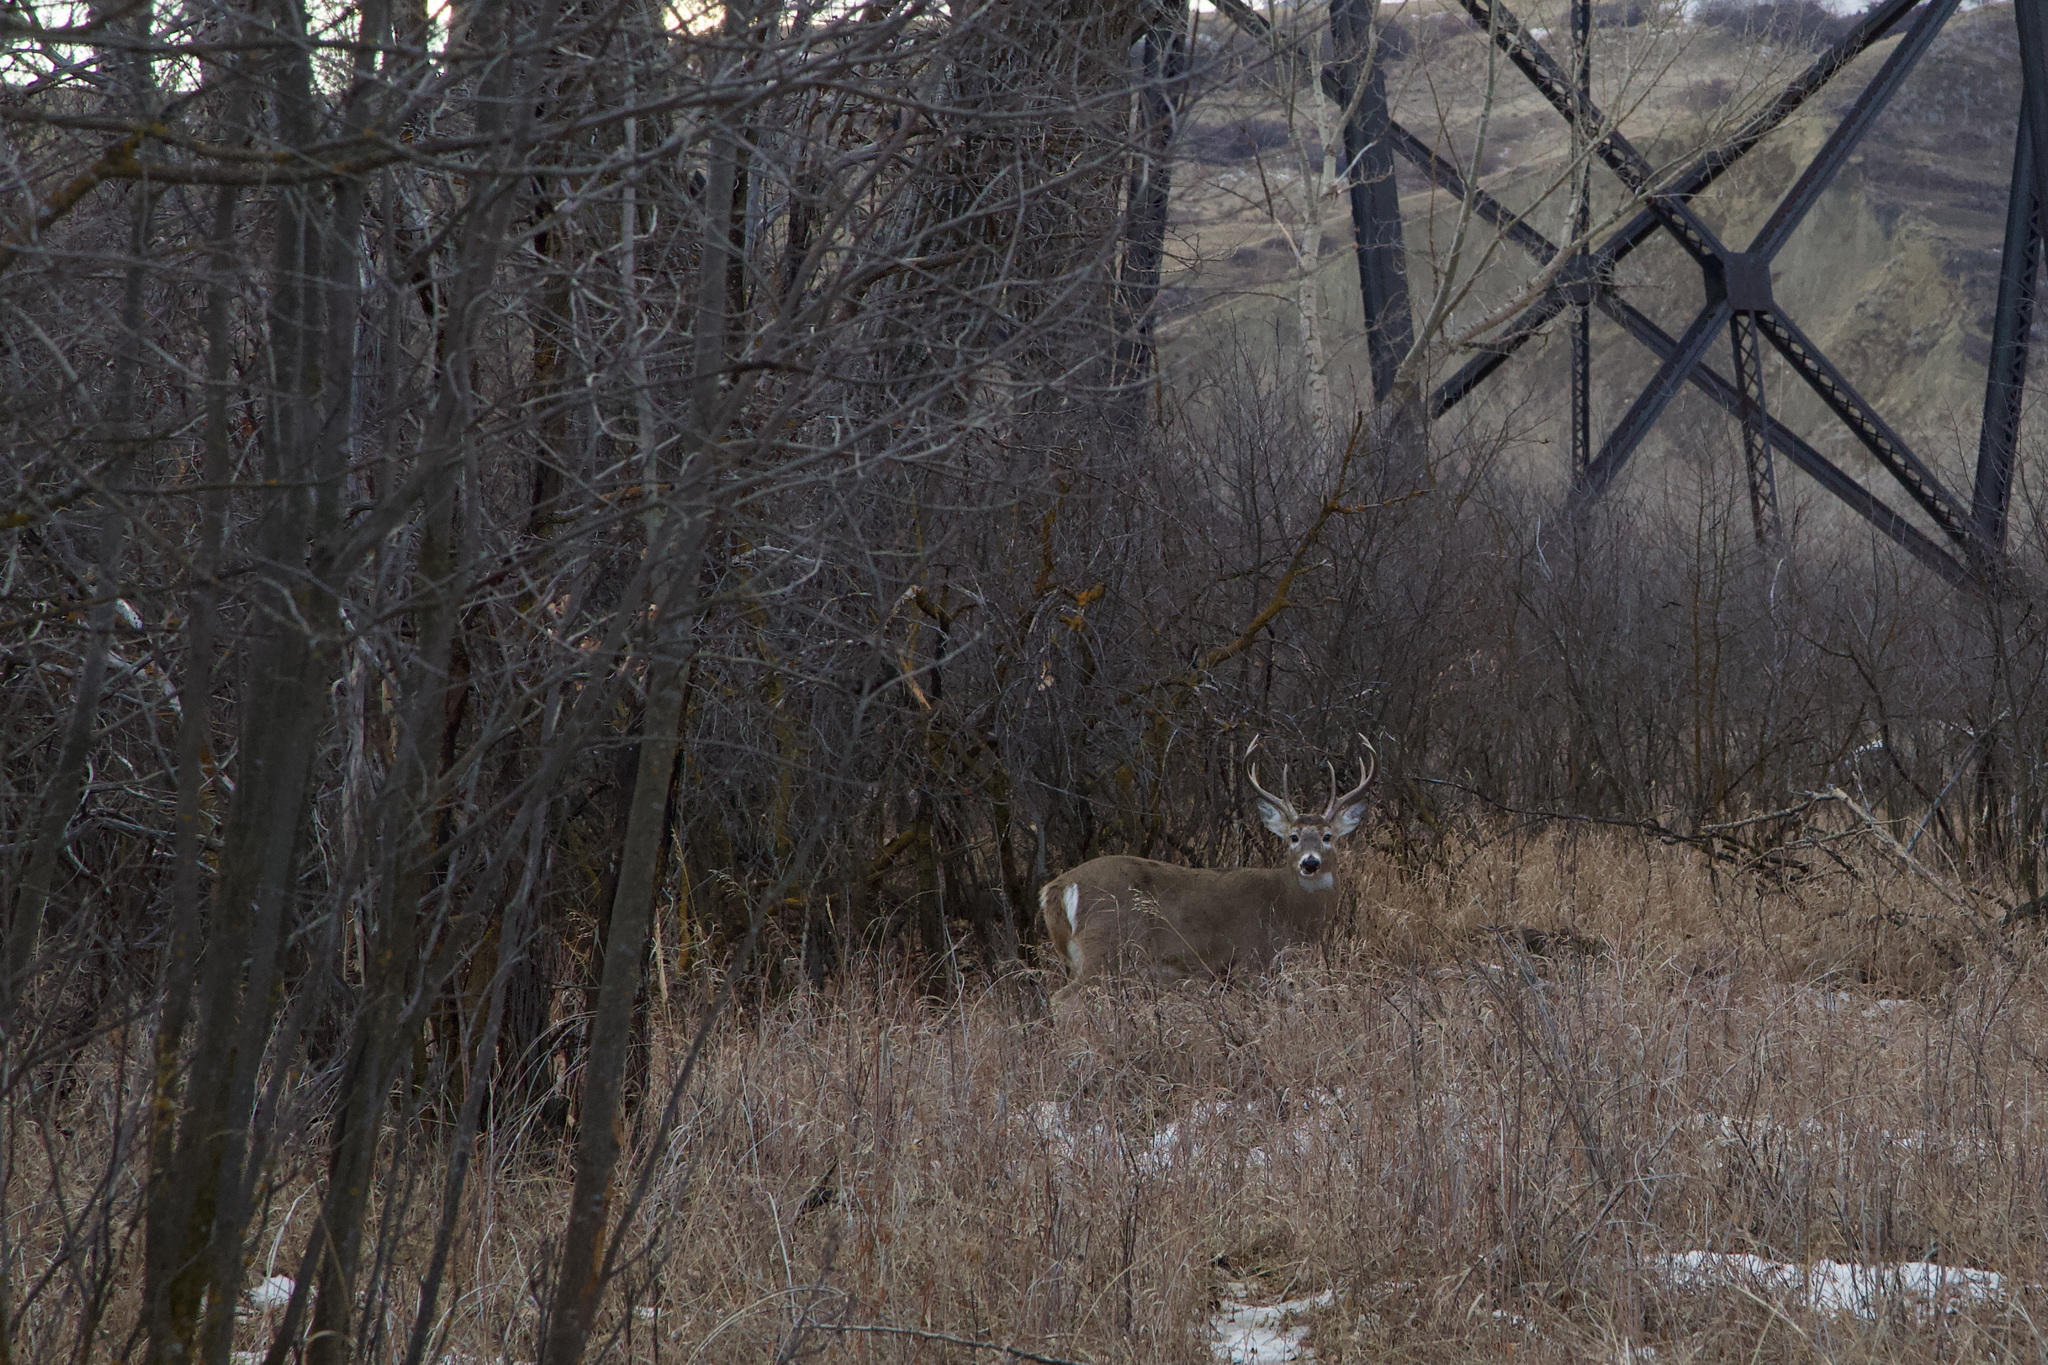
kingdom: Animalia
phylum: Chordata
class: Mammalia
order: Artiodactyla
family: Cervidae
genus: Odocoileus
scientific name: Odocoileus virginianus
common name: White-tailed deer
